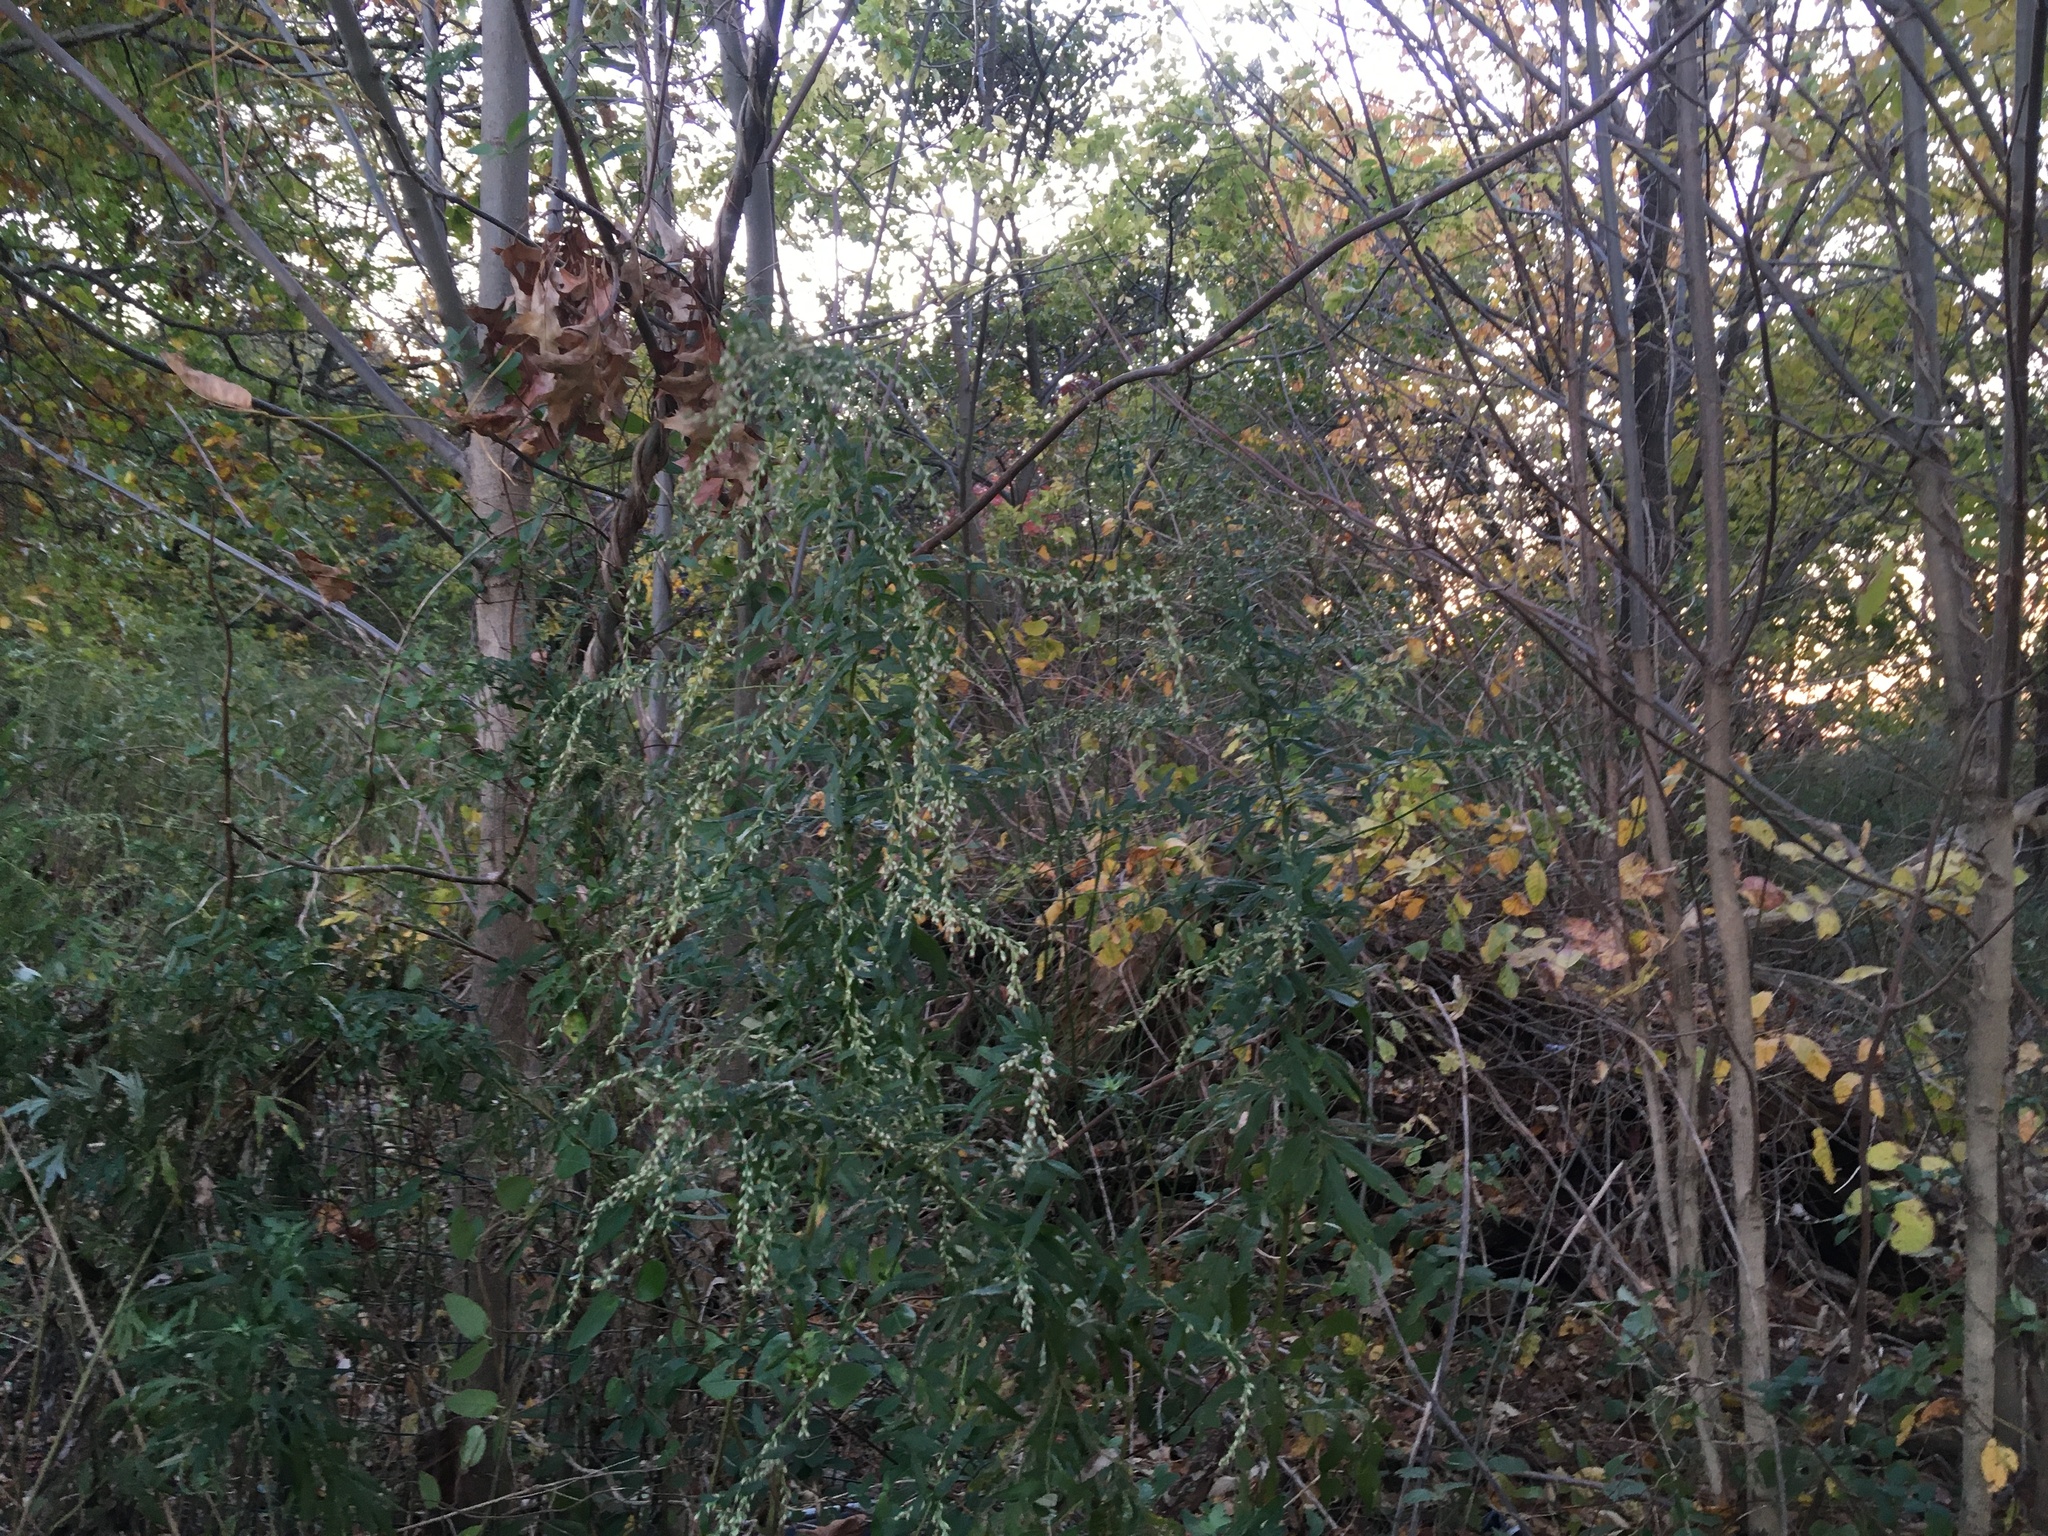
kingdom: Plantae
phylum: Tracheophyta
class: Magnoliopsida
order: Asterales
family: Asteraceae
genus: Artemisia
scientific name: Artemisia vulgaris
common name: Mugwort
